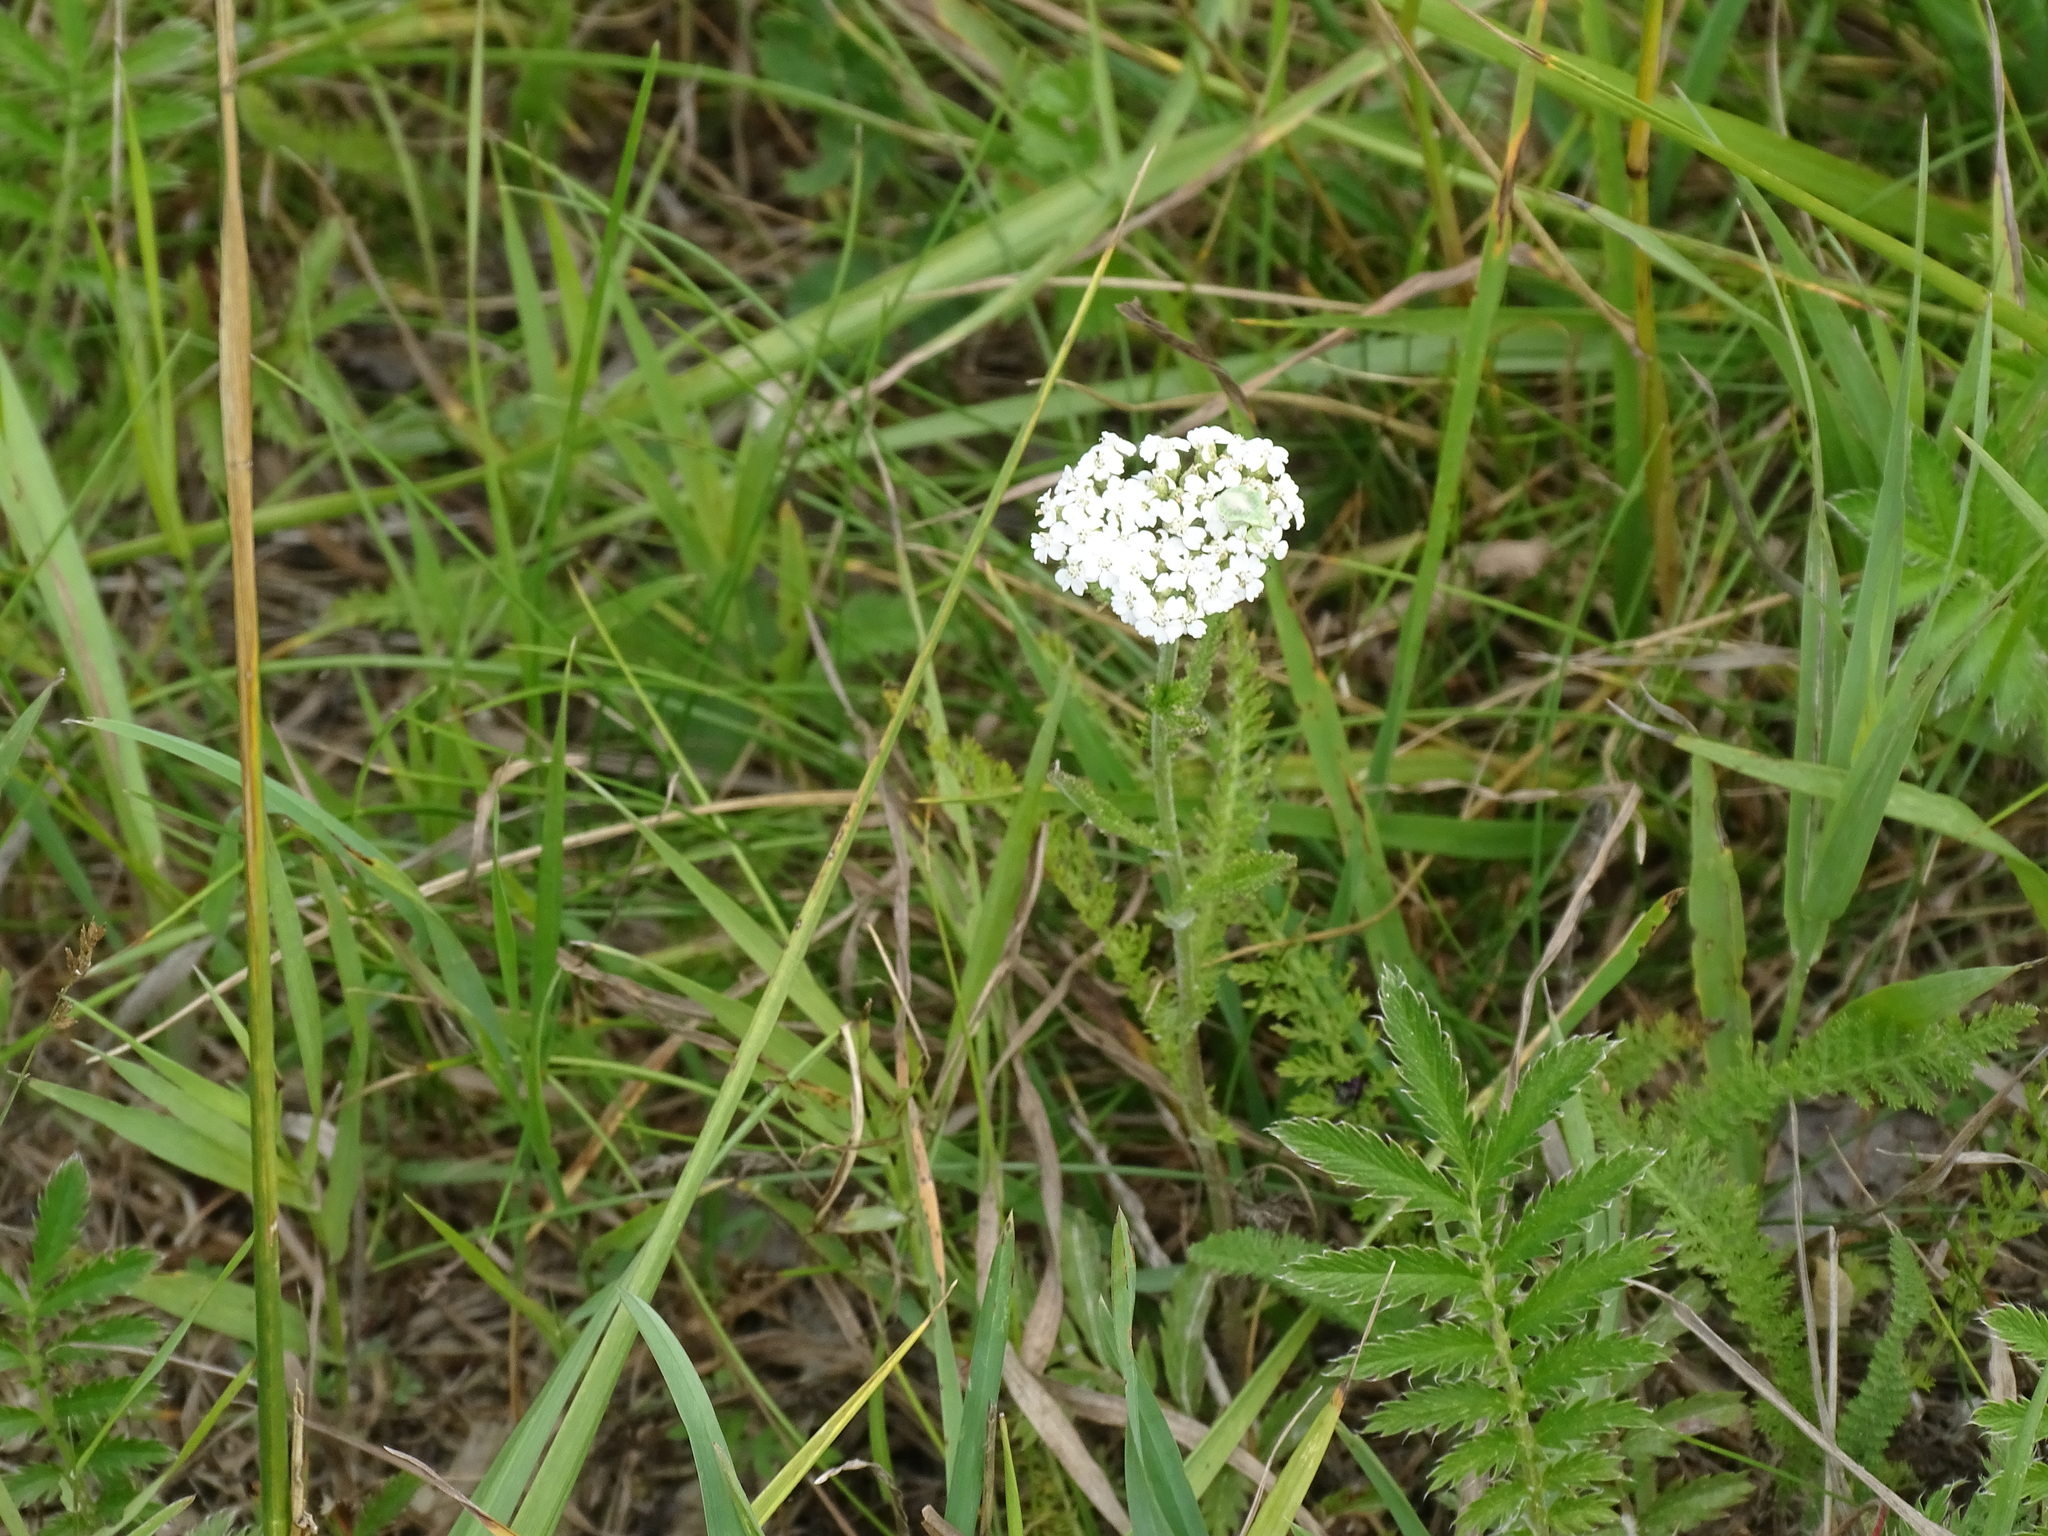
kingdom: Plantae
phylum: Tracheophyta
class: Magnoliopsida
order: Asterales
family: Asteraceae
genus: Achillea
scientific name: Achillea millefolium
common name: Yarrow
